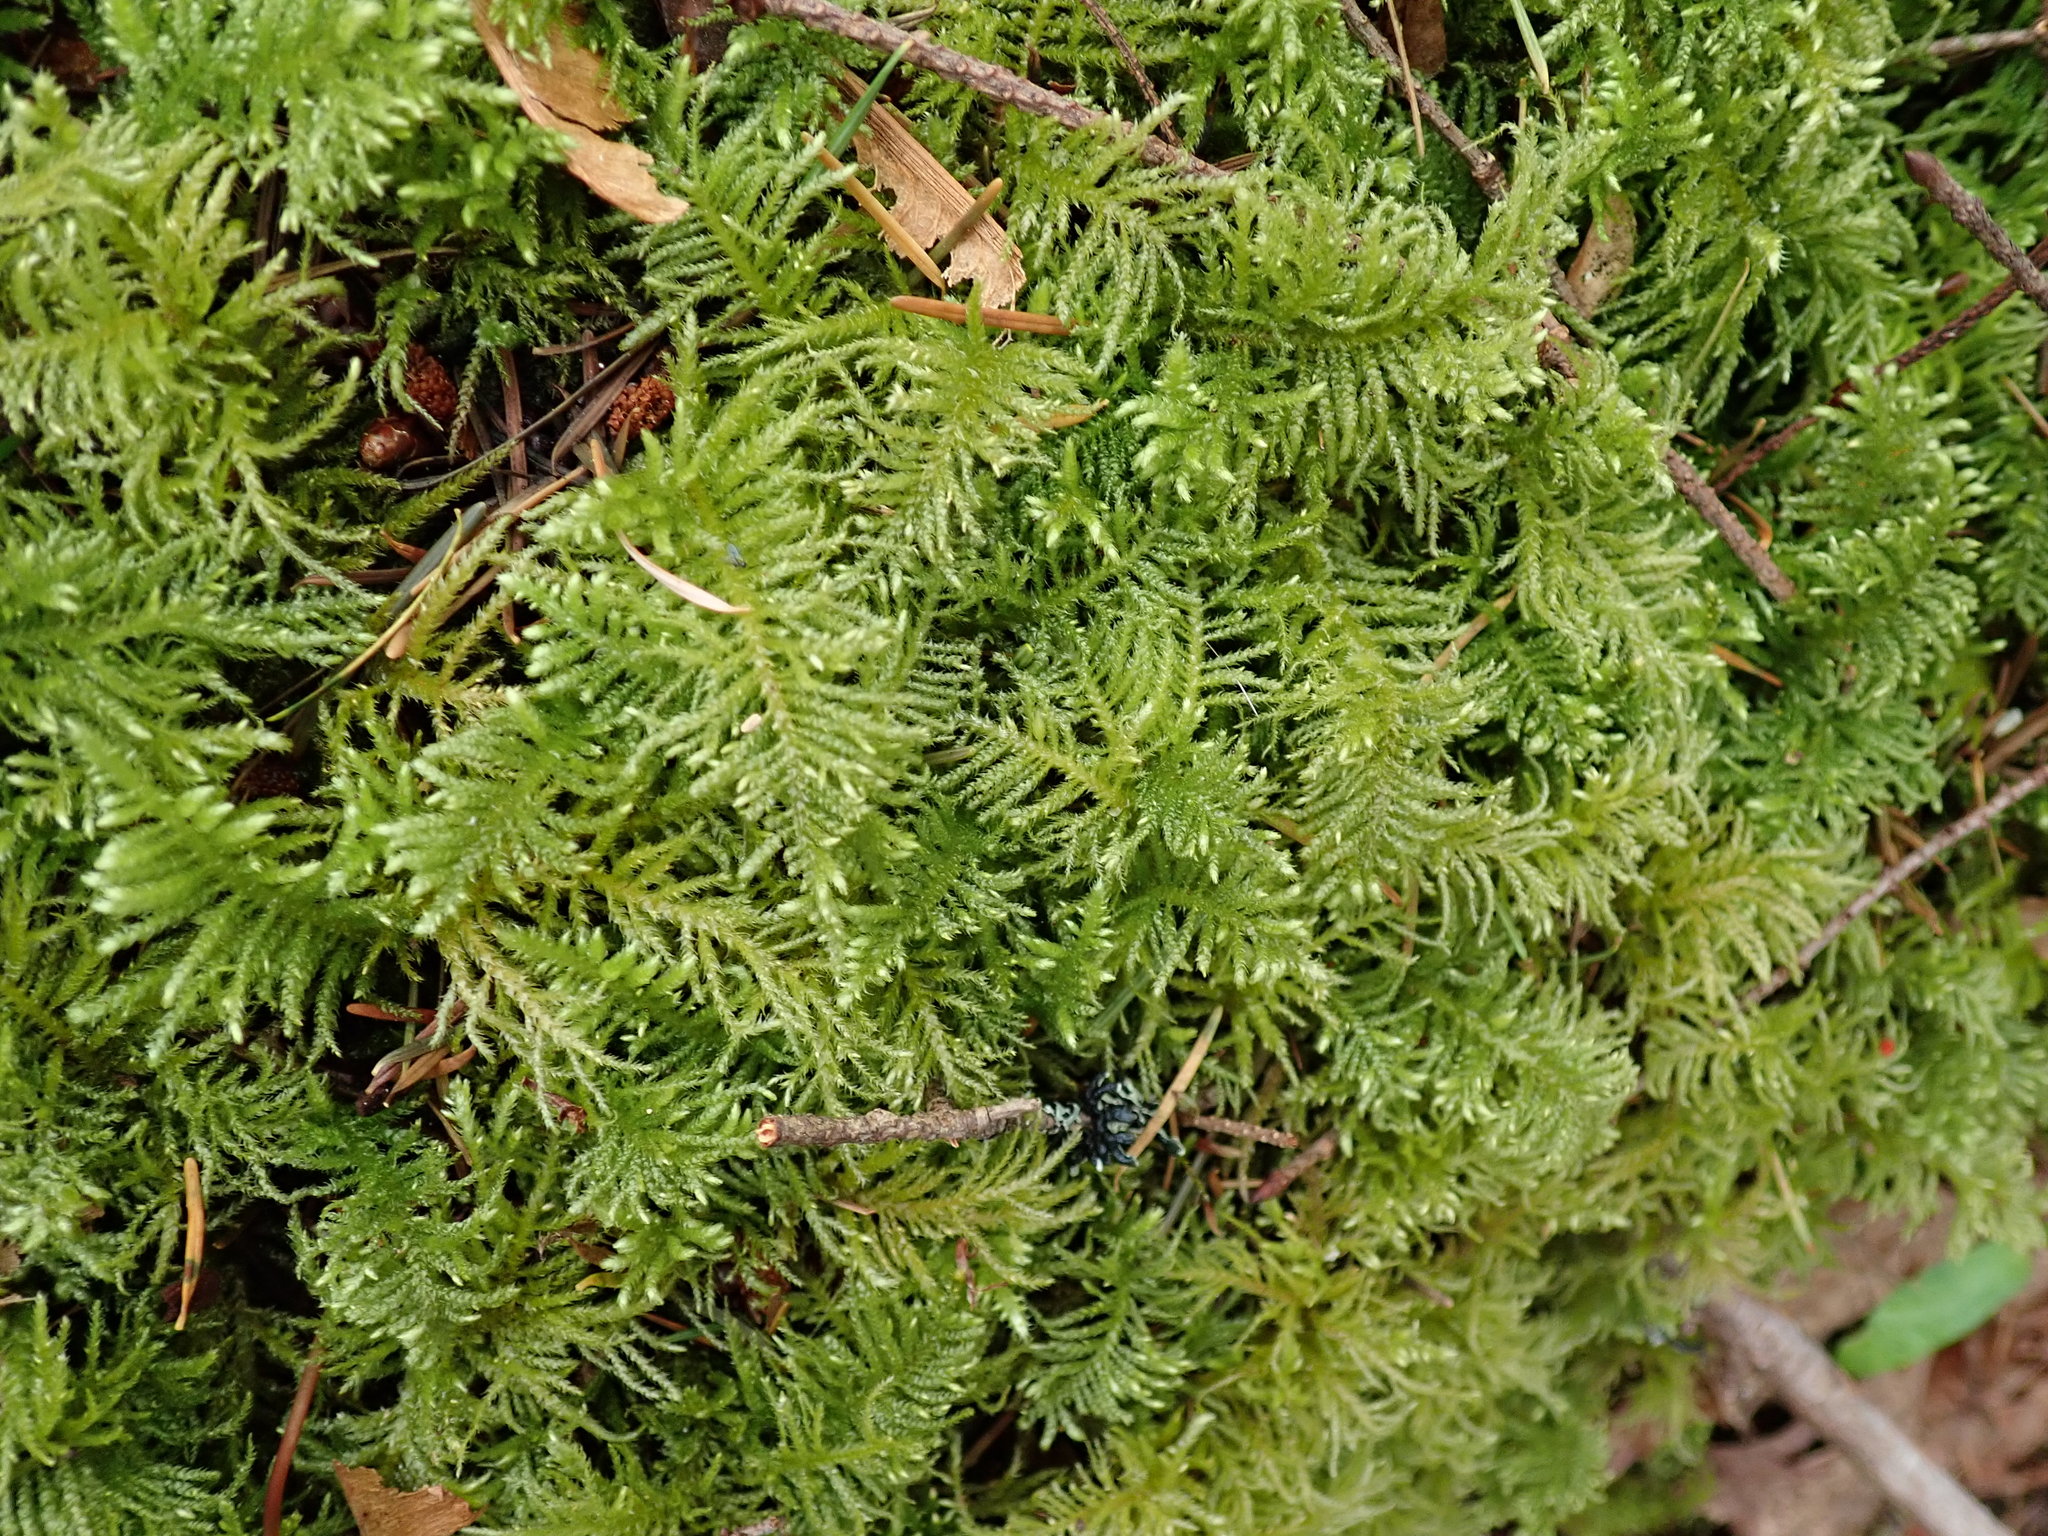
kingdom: Plantae
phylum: Bryophyta
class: Bryopsida
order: Hypnales
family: Brachytheciaceae
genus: Kindbergia
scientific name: Kindbergia oregana
